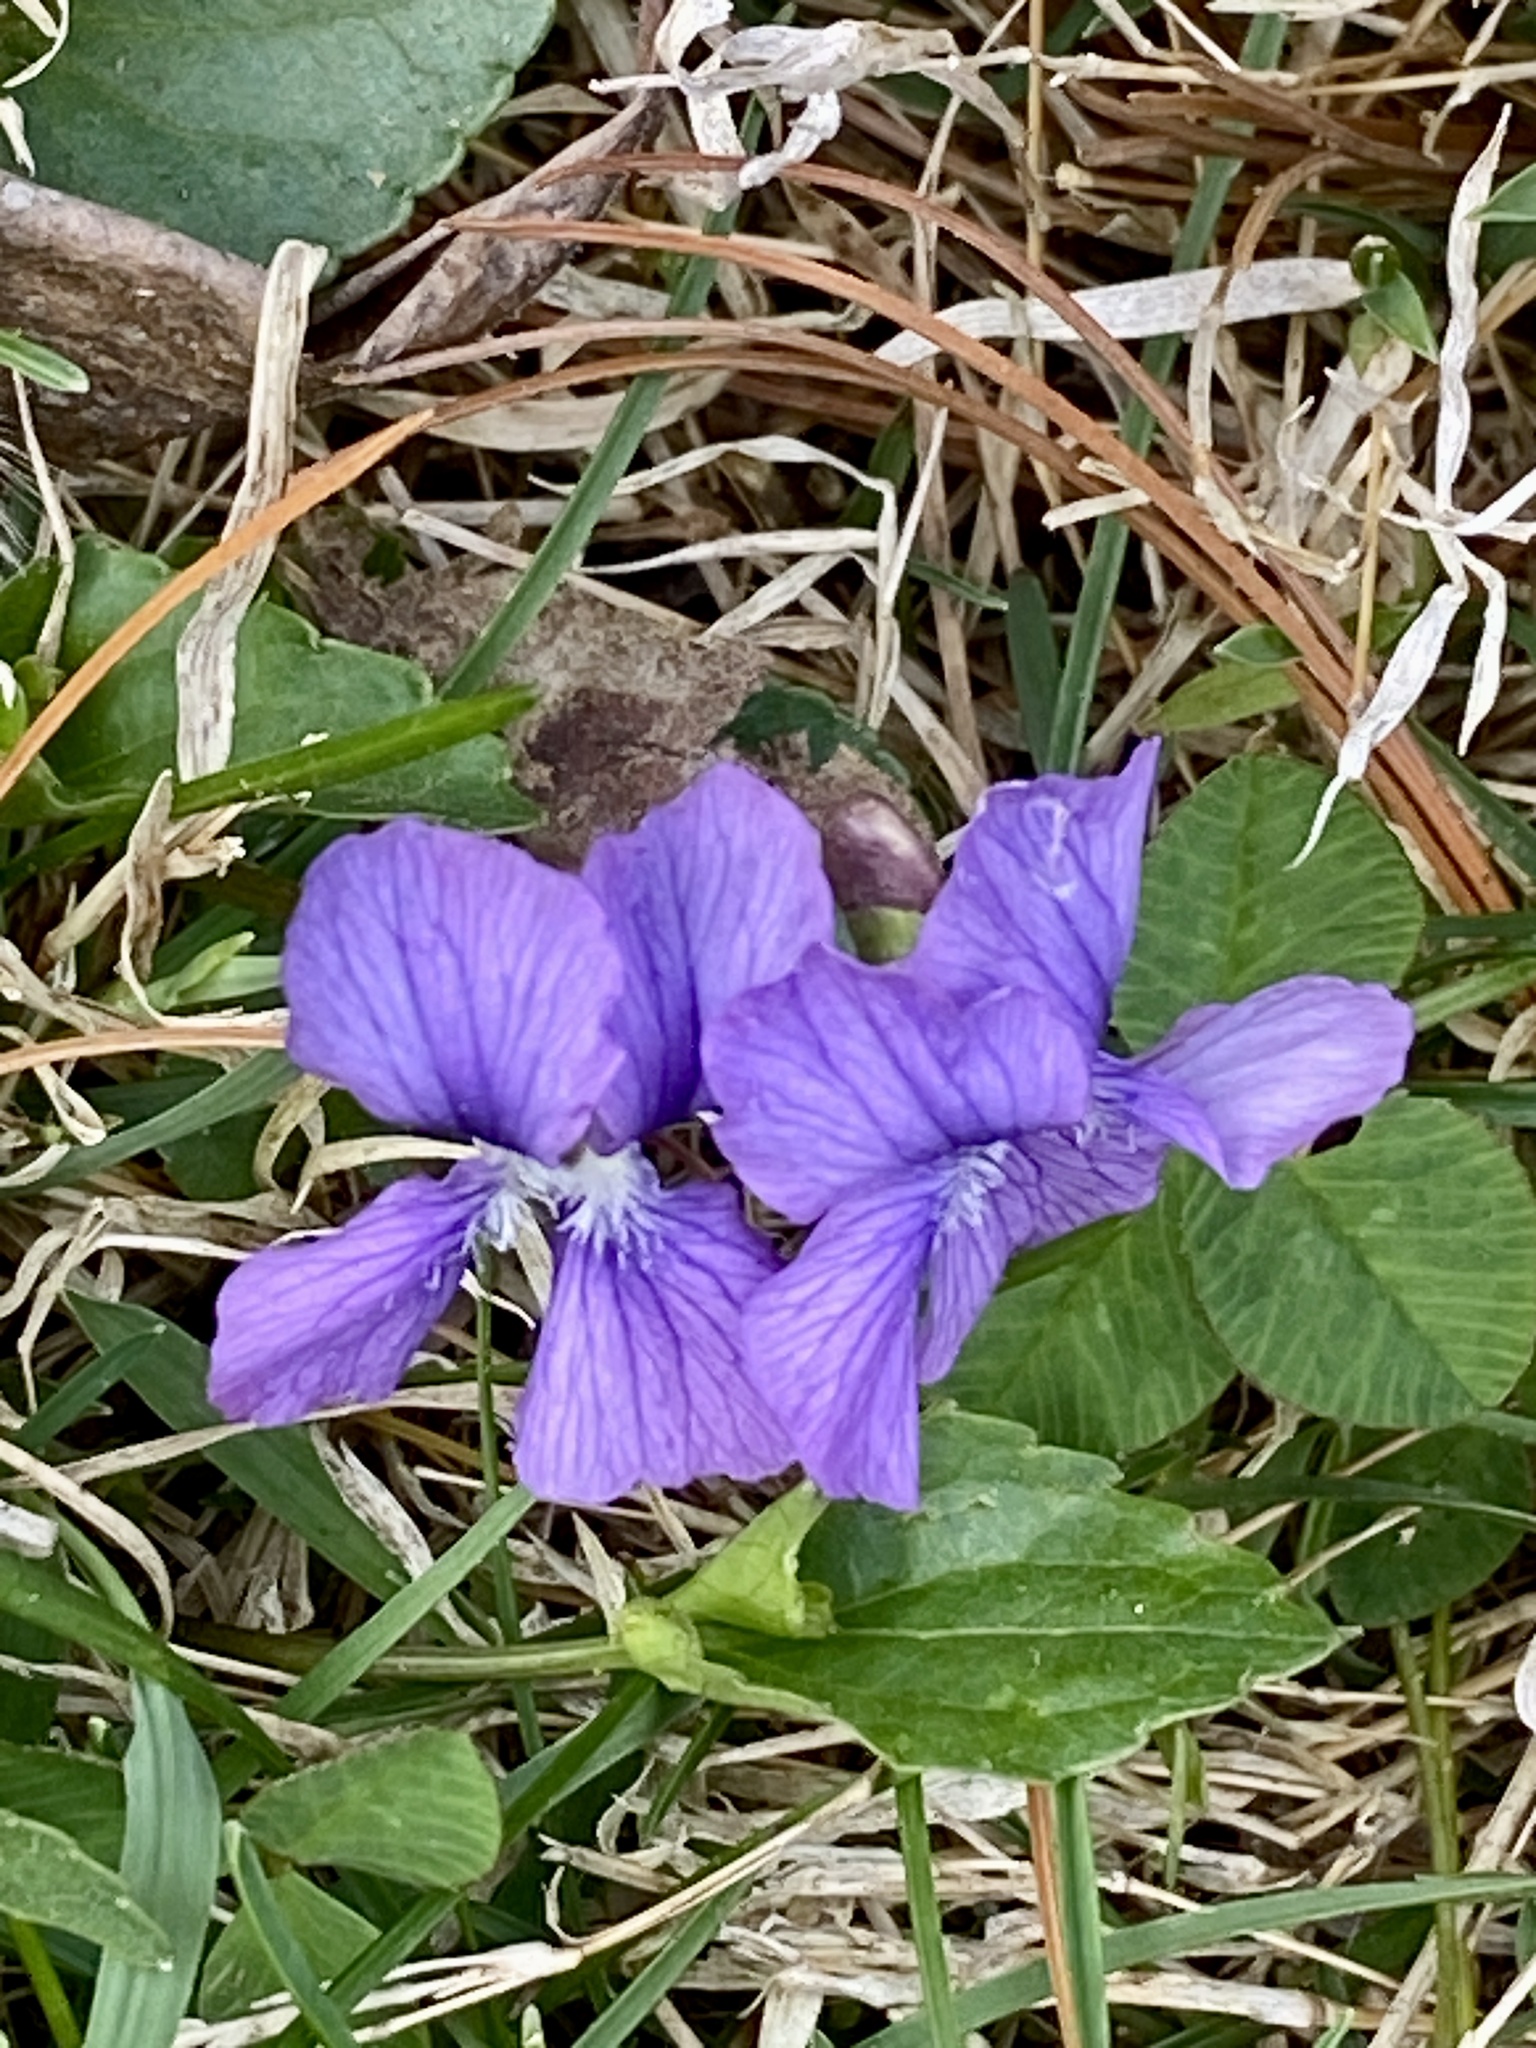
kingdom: Plantae
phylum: Tracheophyta
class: Magnoliopsida
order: Malpighiales
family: Violaceae
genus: Viola
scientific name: Viola sororia
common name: Dooryard violet
